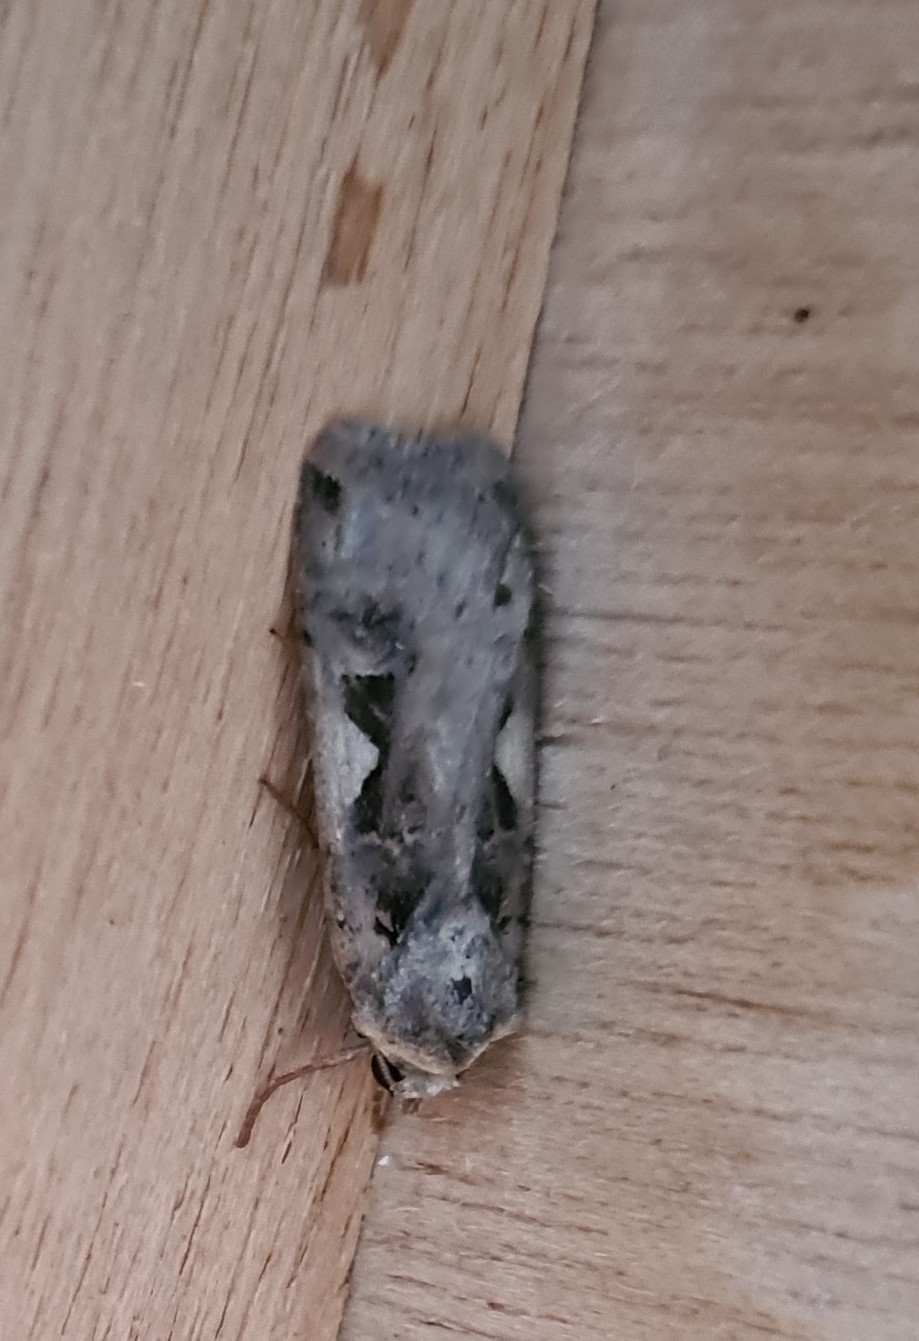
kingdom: Animalia
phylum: Arthropoda
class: Insecta
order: Lepidoptera
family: Noctuidae
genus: Xestia
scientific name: Xestia c-nigrum
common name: Setaceous hebrew character
